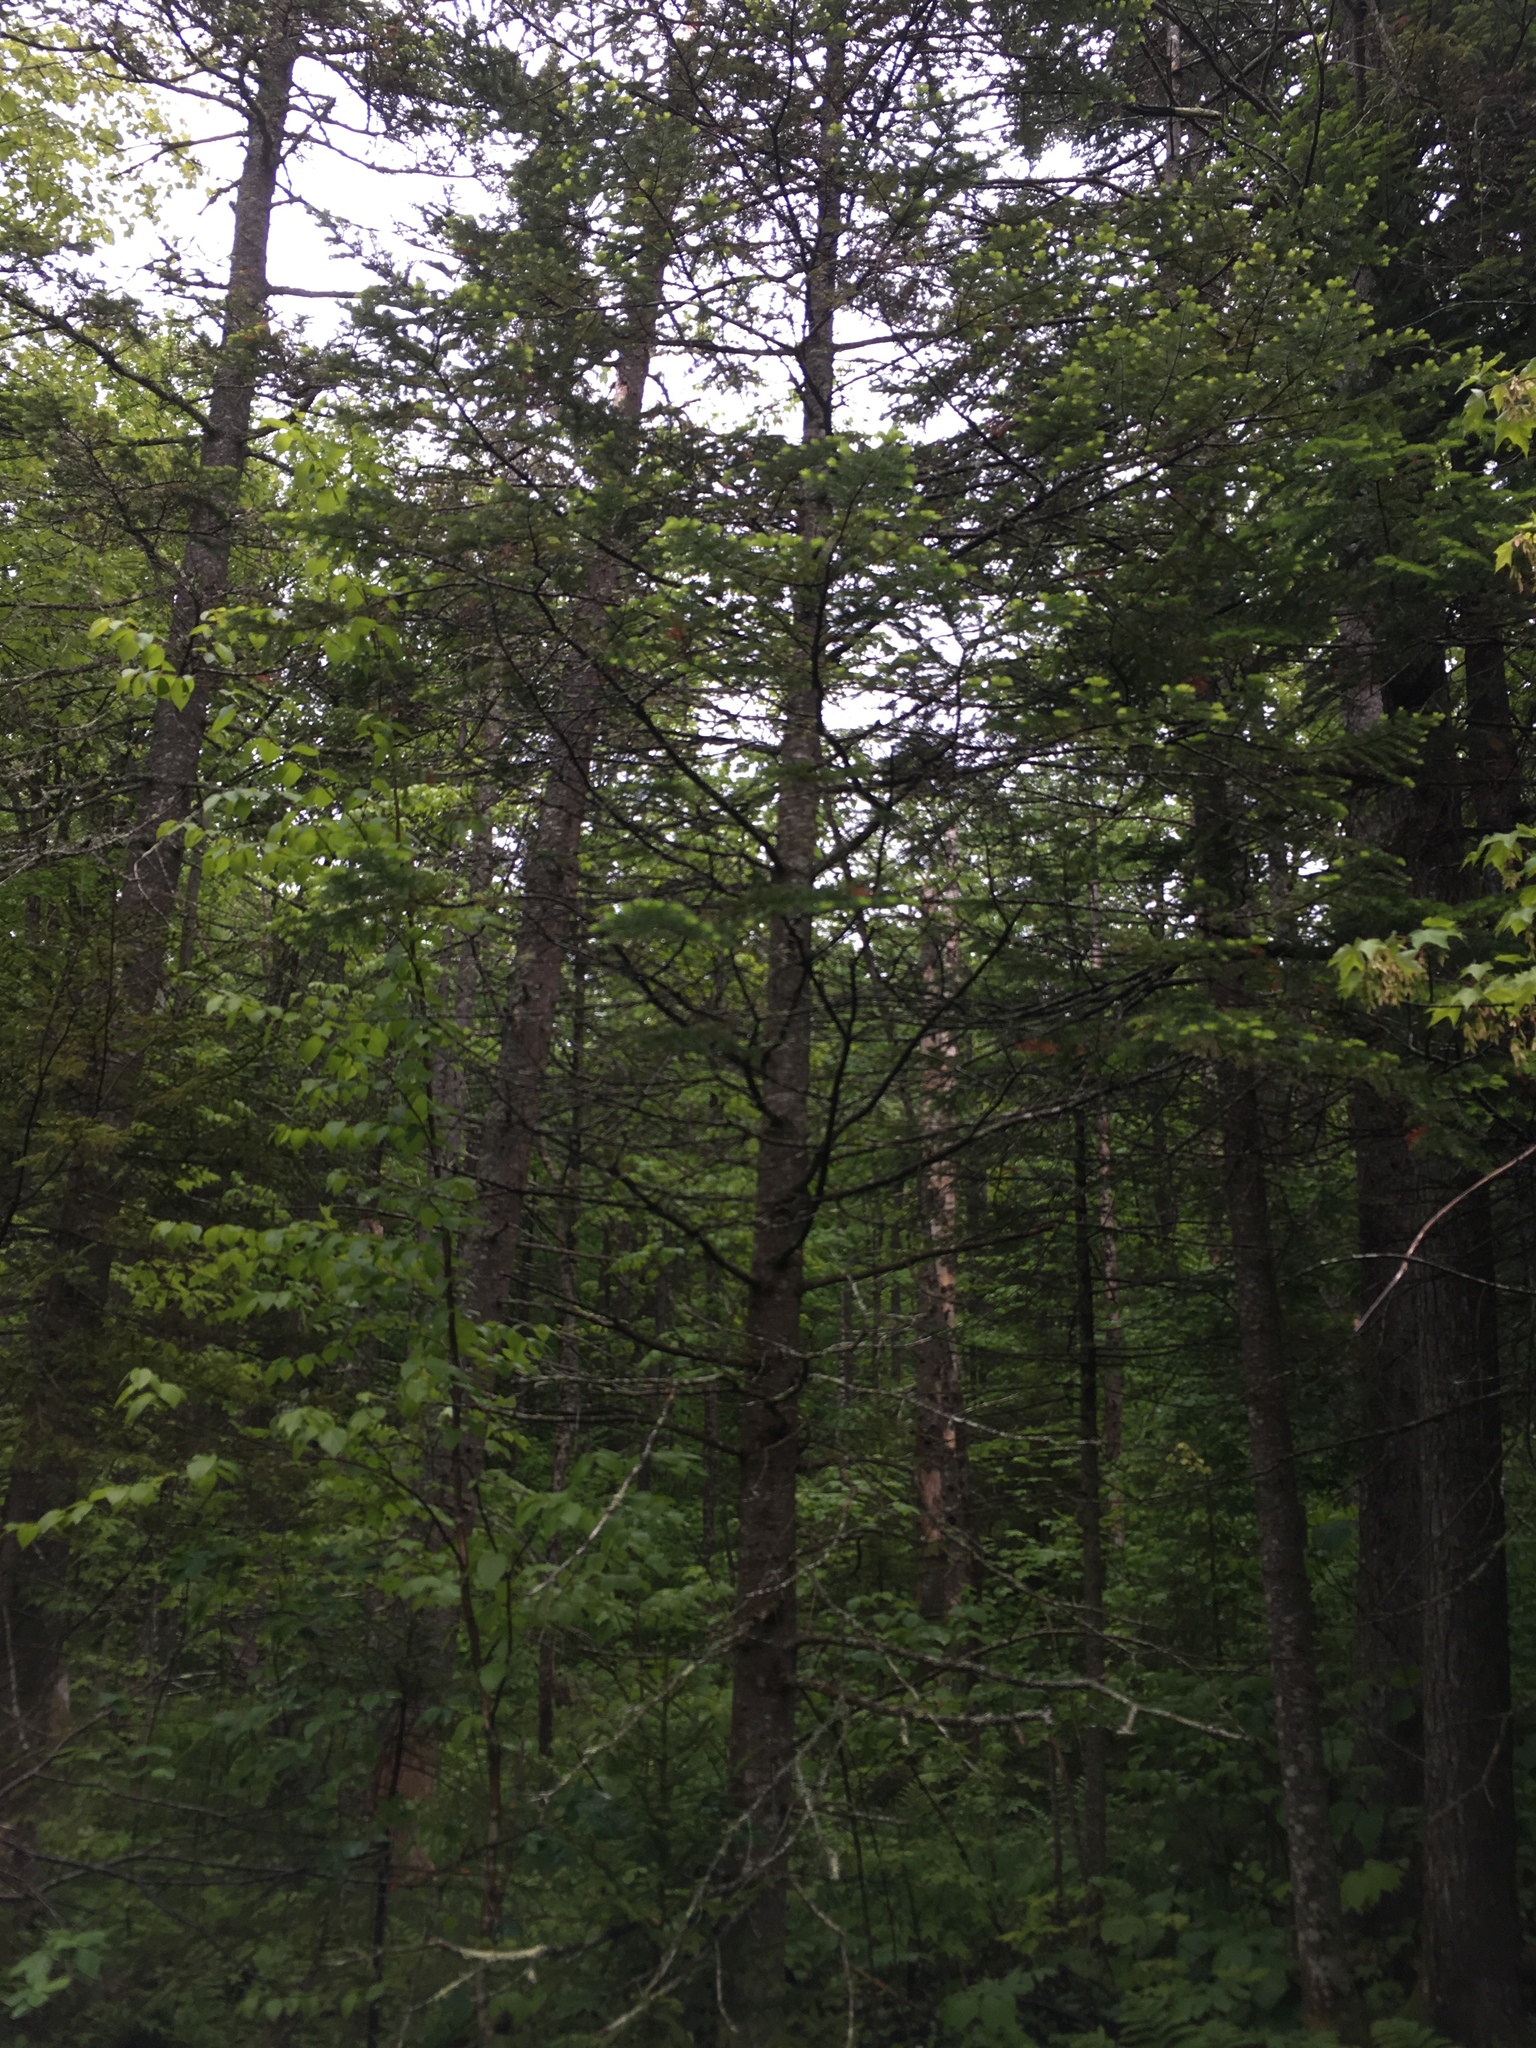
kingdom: Plantae
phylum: Tracheophyta
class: Pinopsida
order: Pinales
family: Pinaceae
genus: Abies
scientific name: Abies balsamea
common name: Balsam fir
